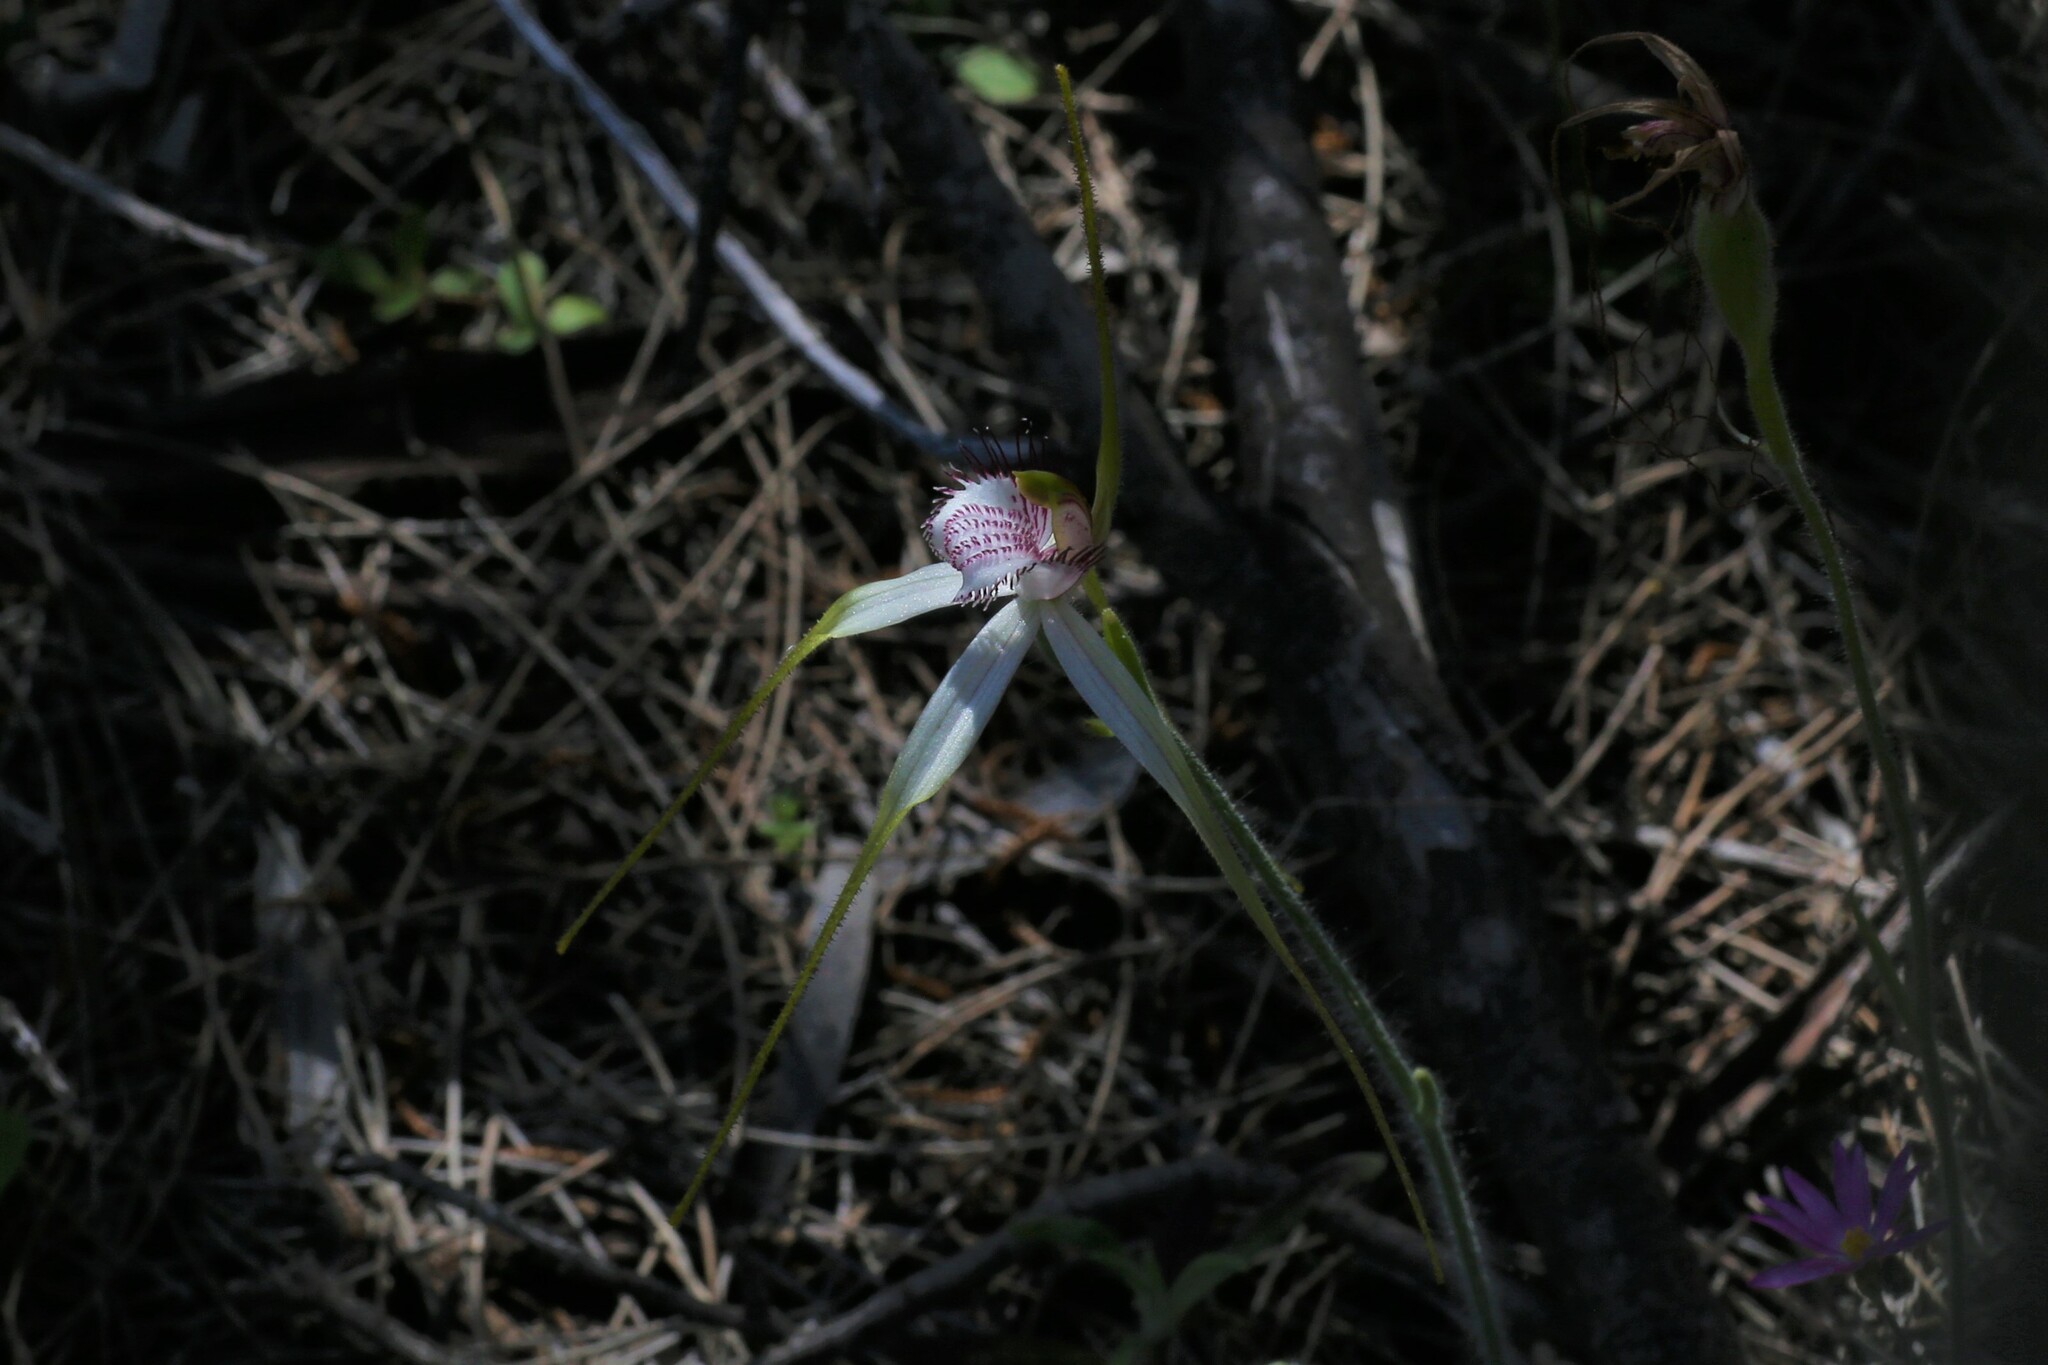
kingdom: Plantae
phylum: Tracheophyta
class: Liliopsida
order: Asparagales
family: Orchidaceae
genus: Caladenia
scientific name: Caladenia longicauda
